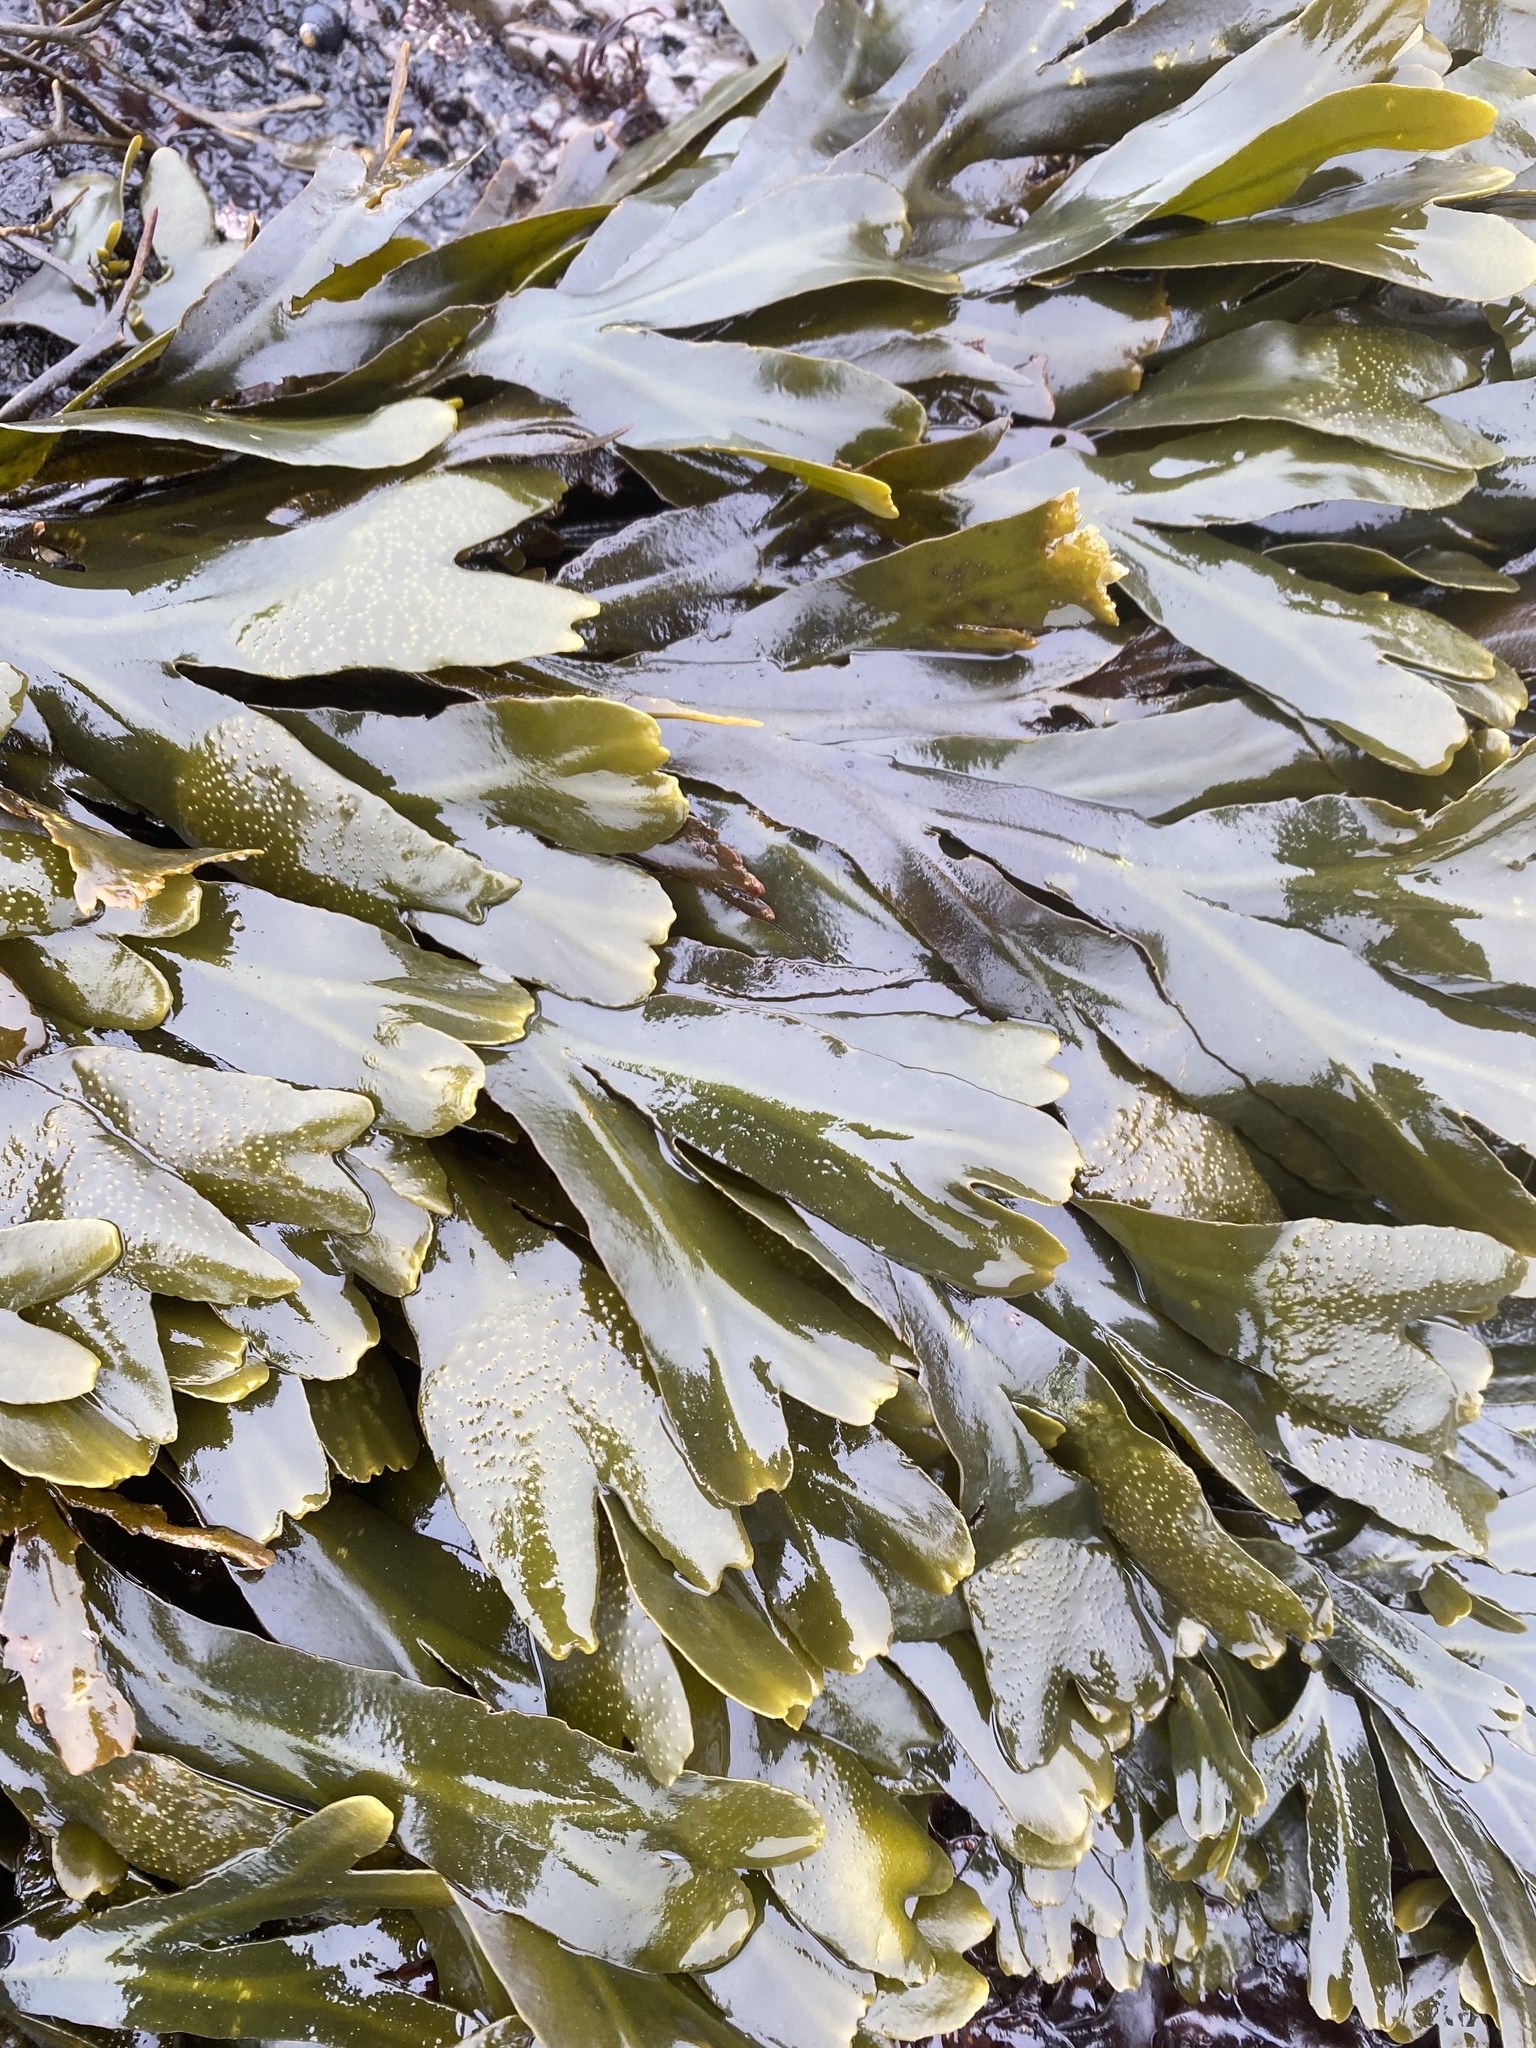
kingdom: Chromista
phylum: Ochrophyta
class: Phaeophyceae
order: Fucales
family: Fucaceae
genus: Fucus
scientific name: Fucus distichus
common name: Rockweed
